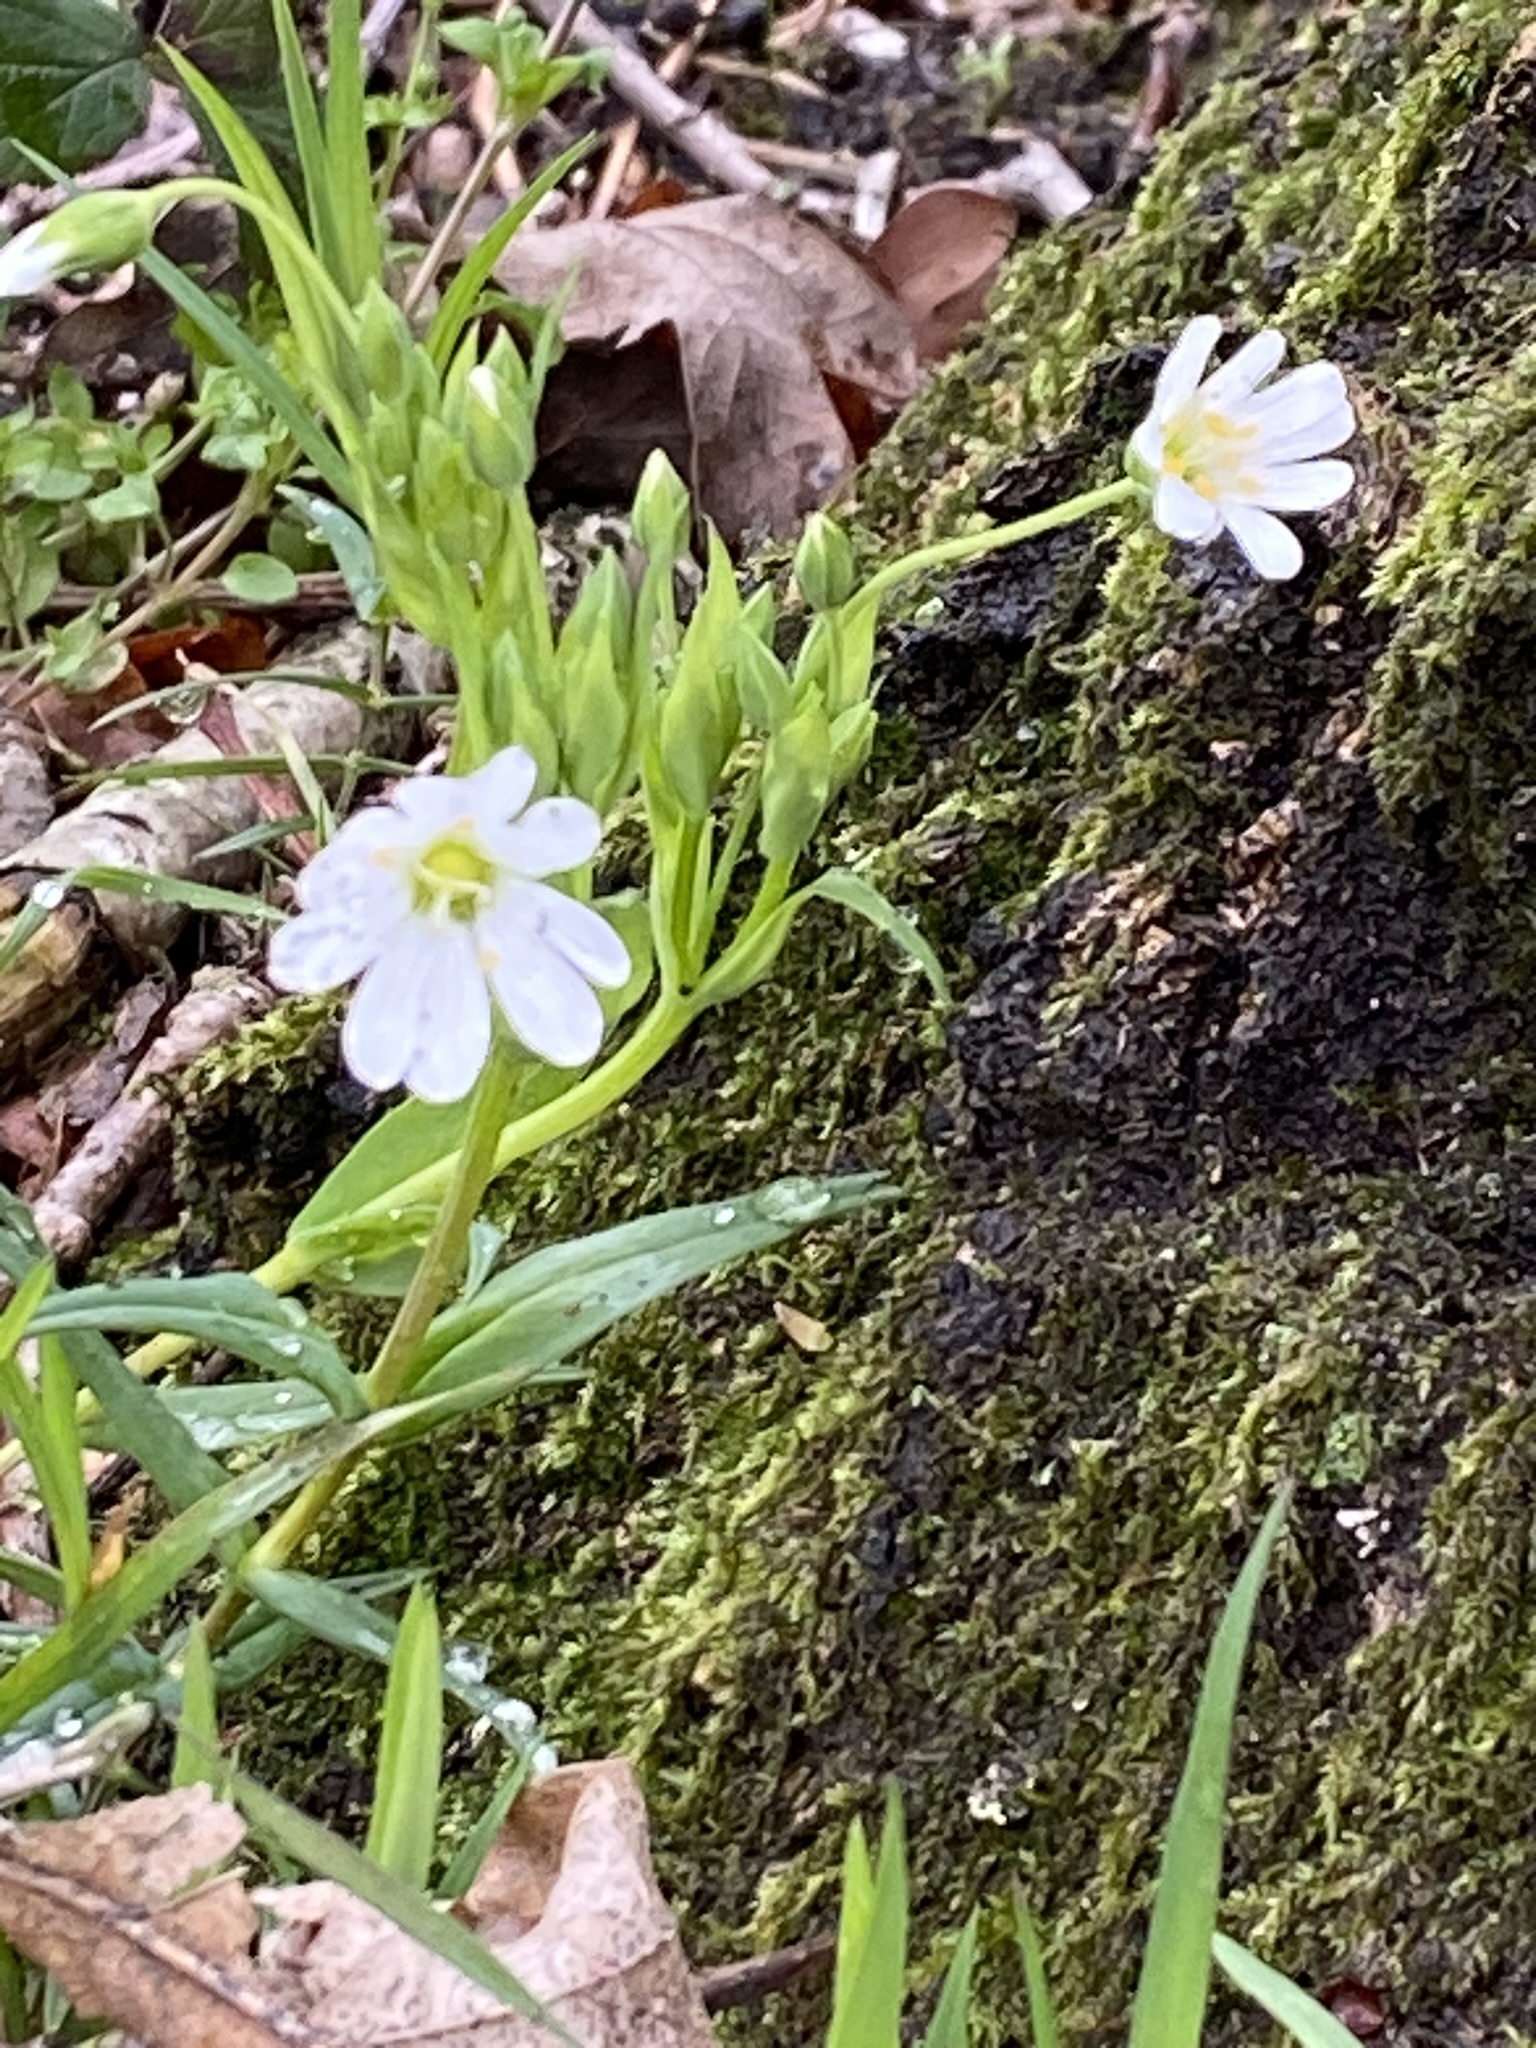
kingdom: Plantae
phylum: Tracheophyta
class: Magnoliopsida
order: Caryophyllales
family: Caryophyllaceae
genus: Rabelera
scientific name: Rabelera holostea
